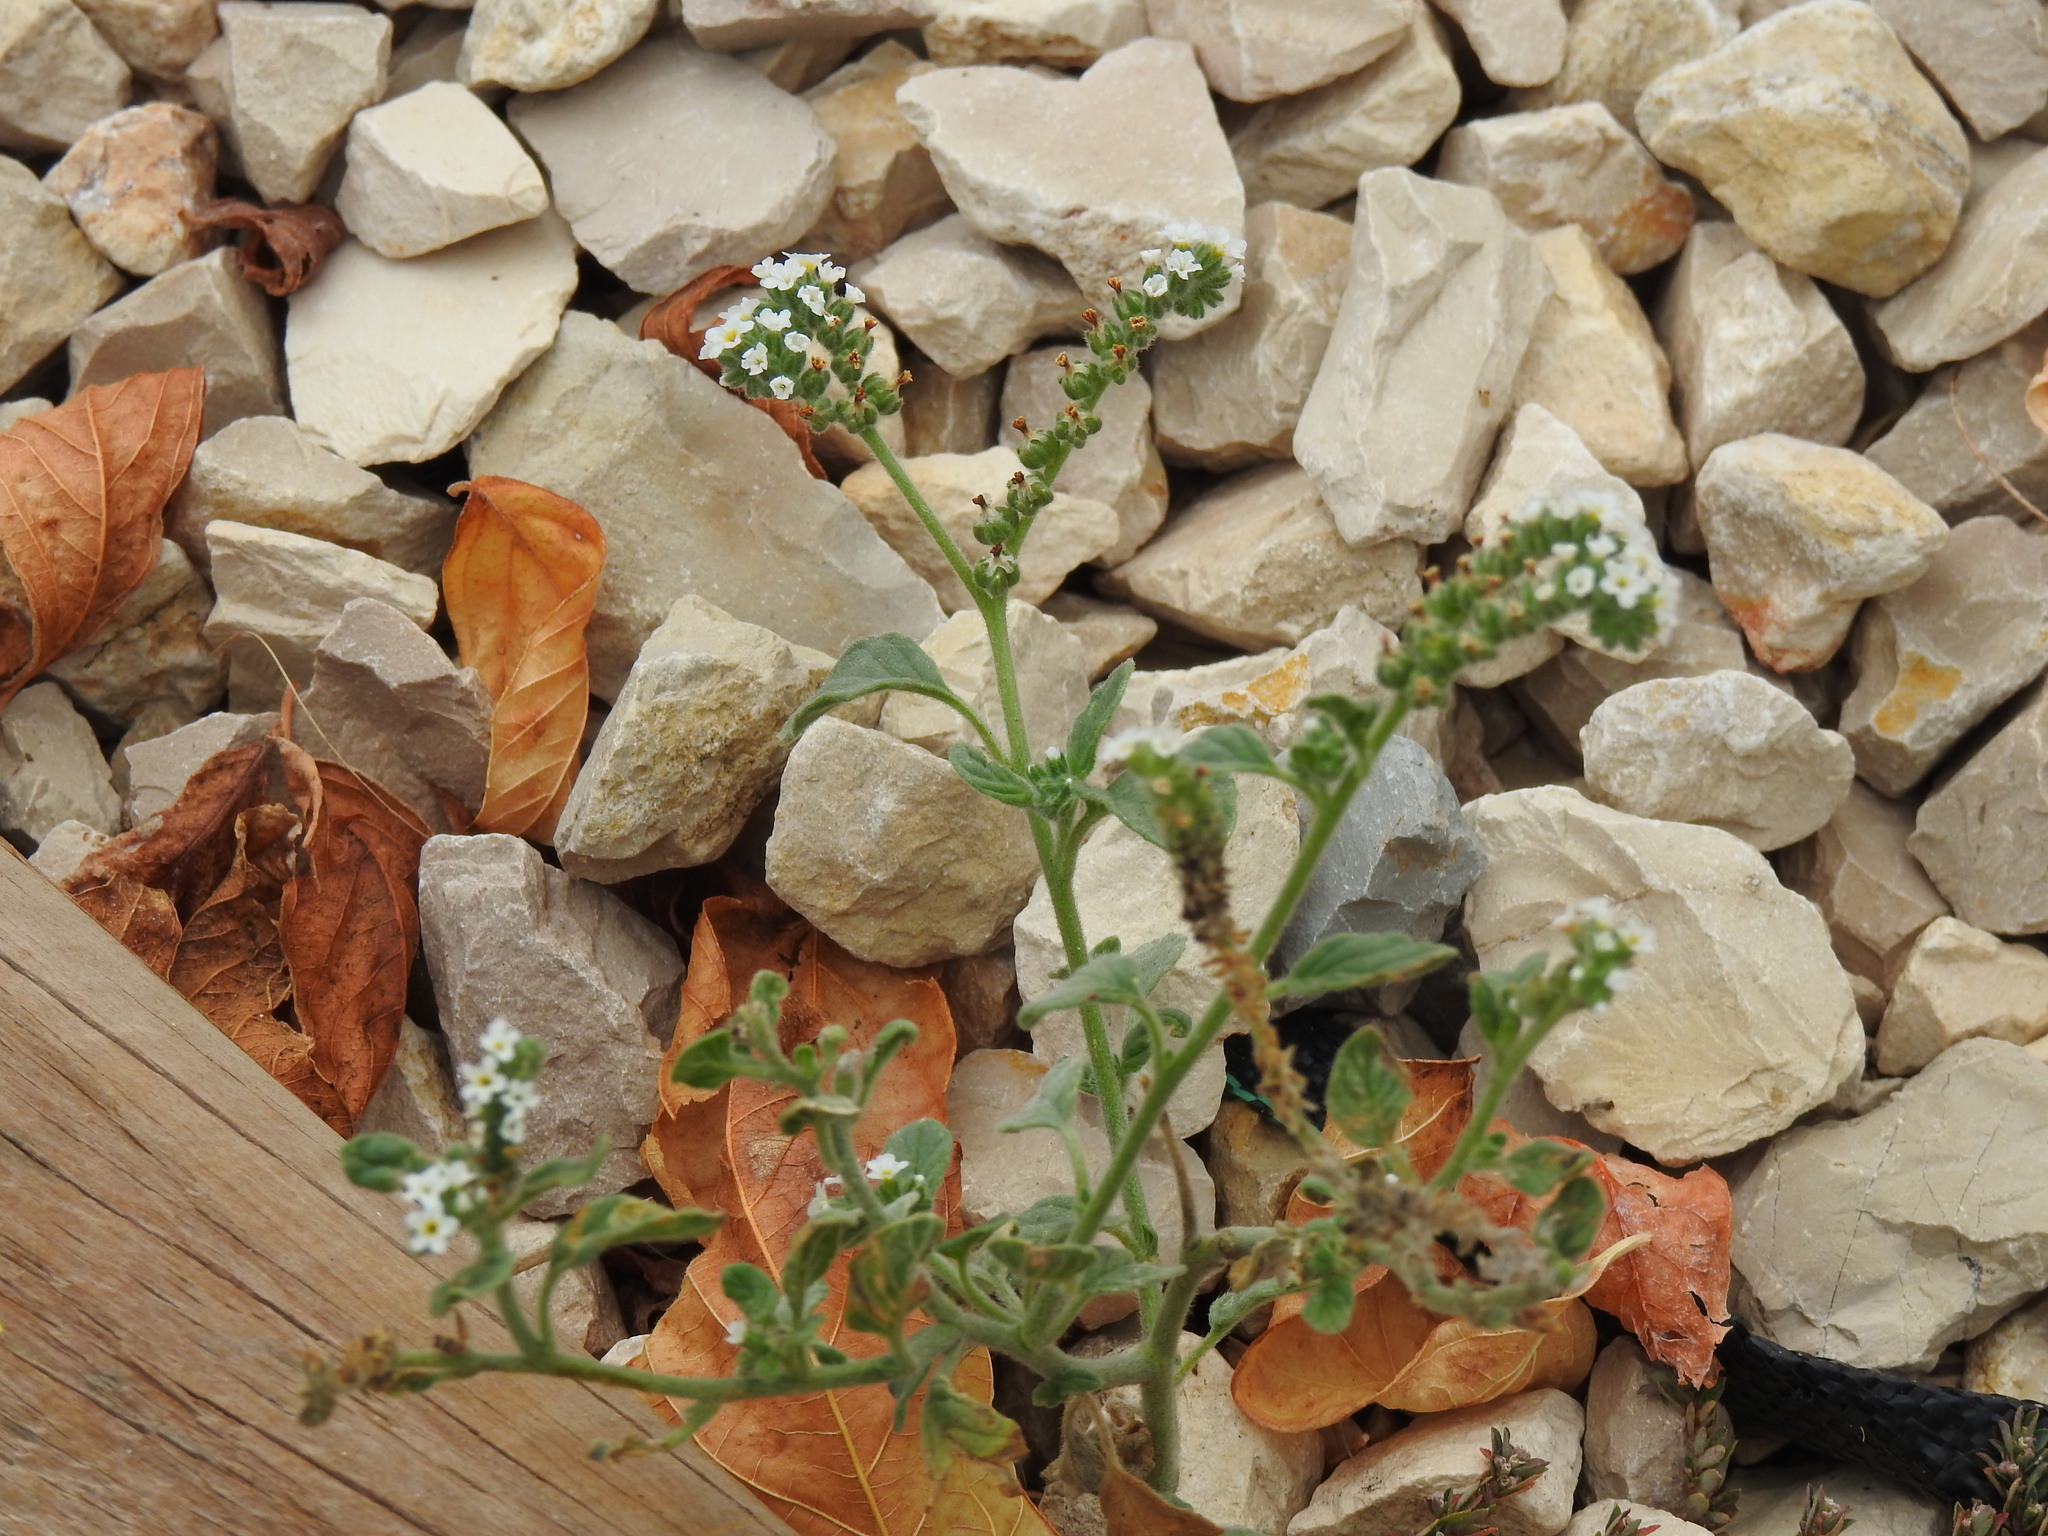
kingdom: Plantae
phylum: Tracheophyta
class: Magnoliopsida
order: Boraginales
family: Heliotropiaceae
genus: Heliotropium
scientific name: Heliotropium europaeum
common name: European heliotrope
